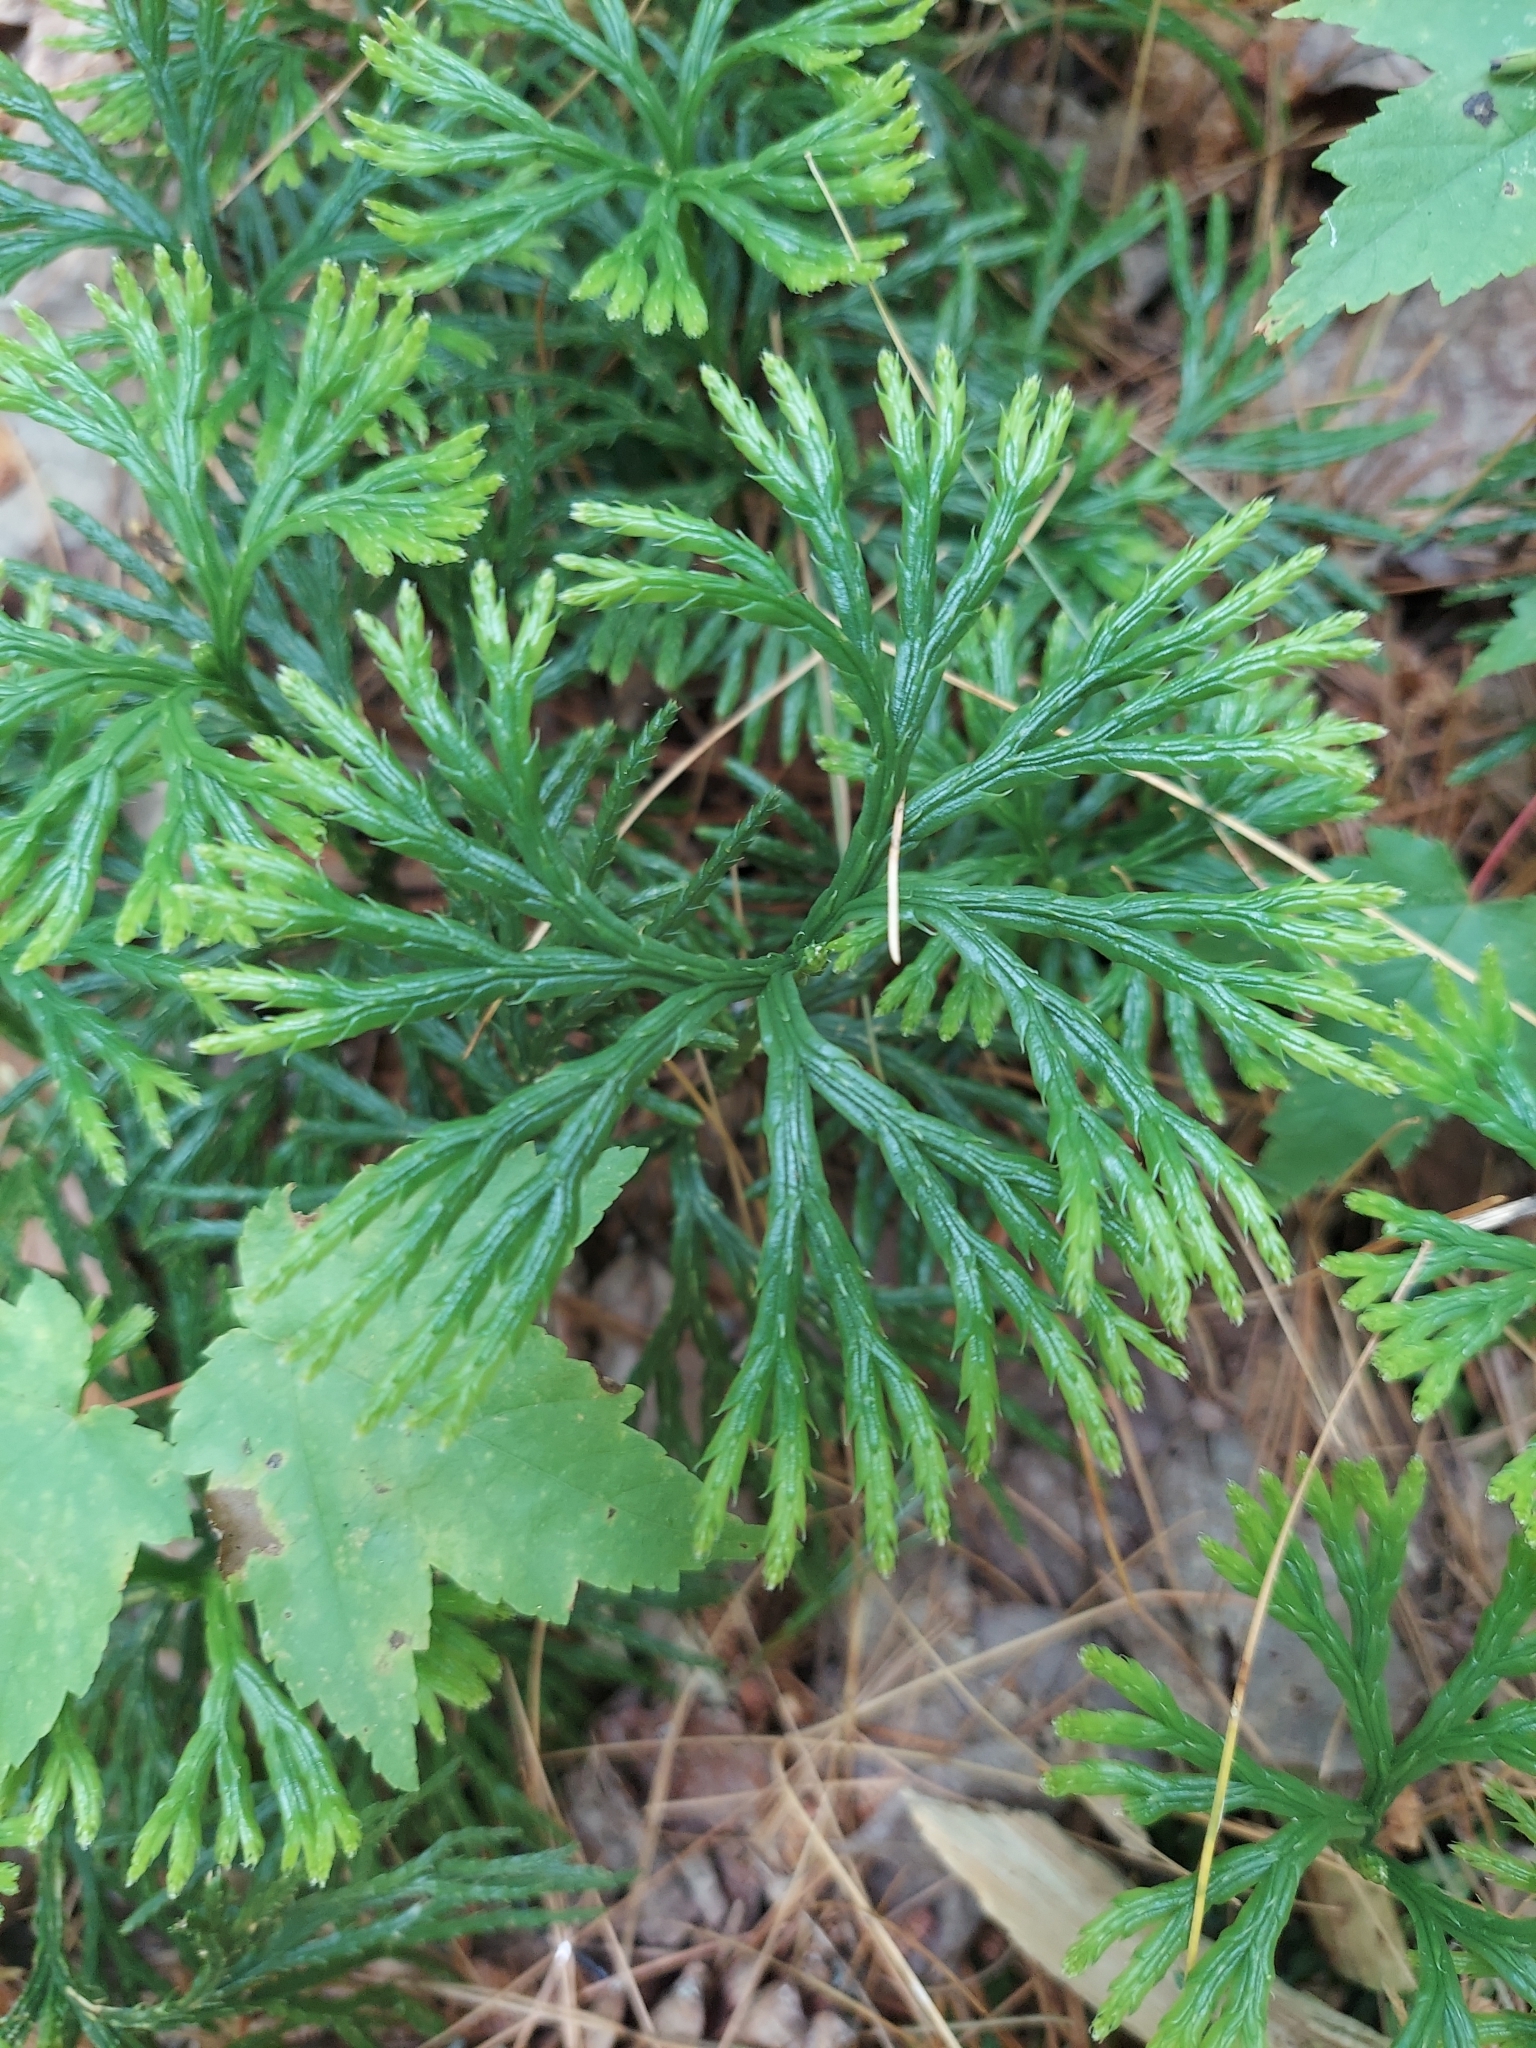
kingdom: Plantae
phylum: Tracheophyta
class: Lycopodiopsida
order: Lycopodiales
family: Lycopodiaceae
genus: Diphasiastrum
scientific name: Diphasiastrum digitatum
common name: Southern running-pine
